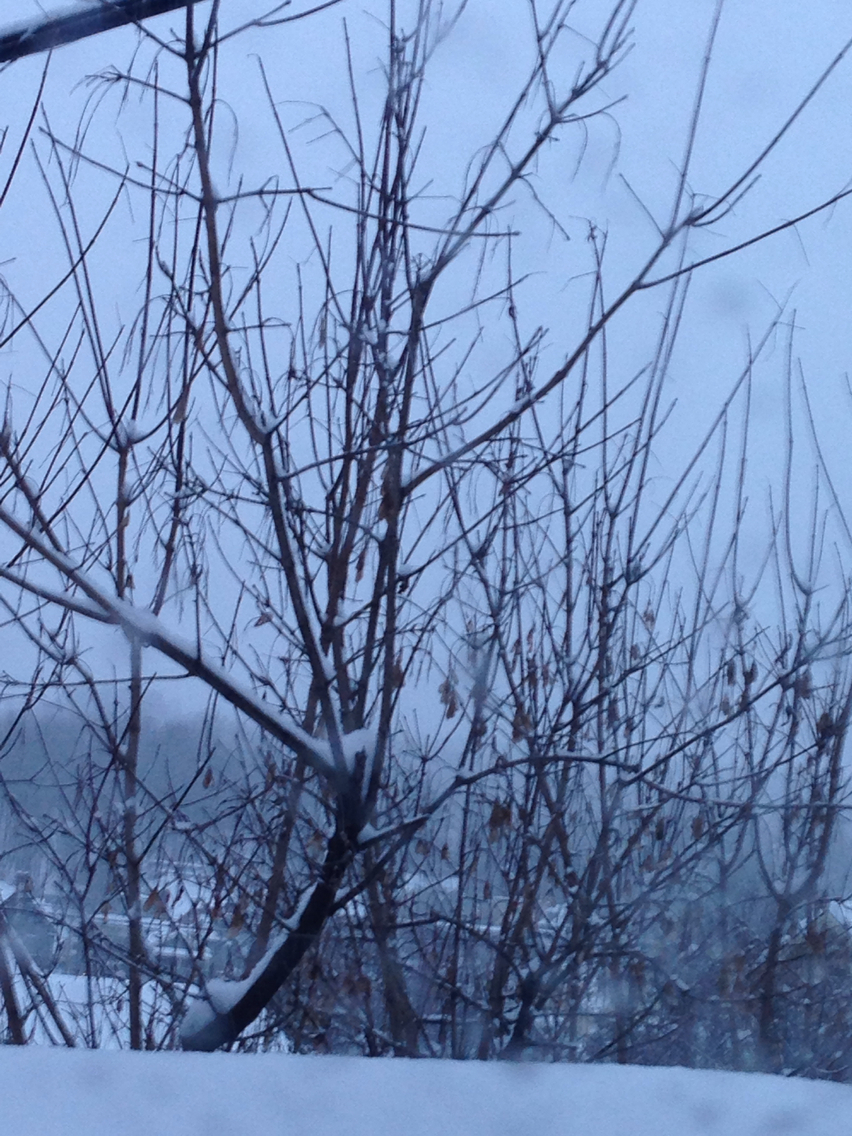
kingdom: Plantae
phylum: Tracheophyta
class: Magnoliopsida
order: Sapindales
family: Sapindaceae
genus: Acer
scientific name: Acer negundo
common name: Ashleaf maple
